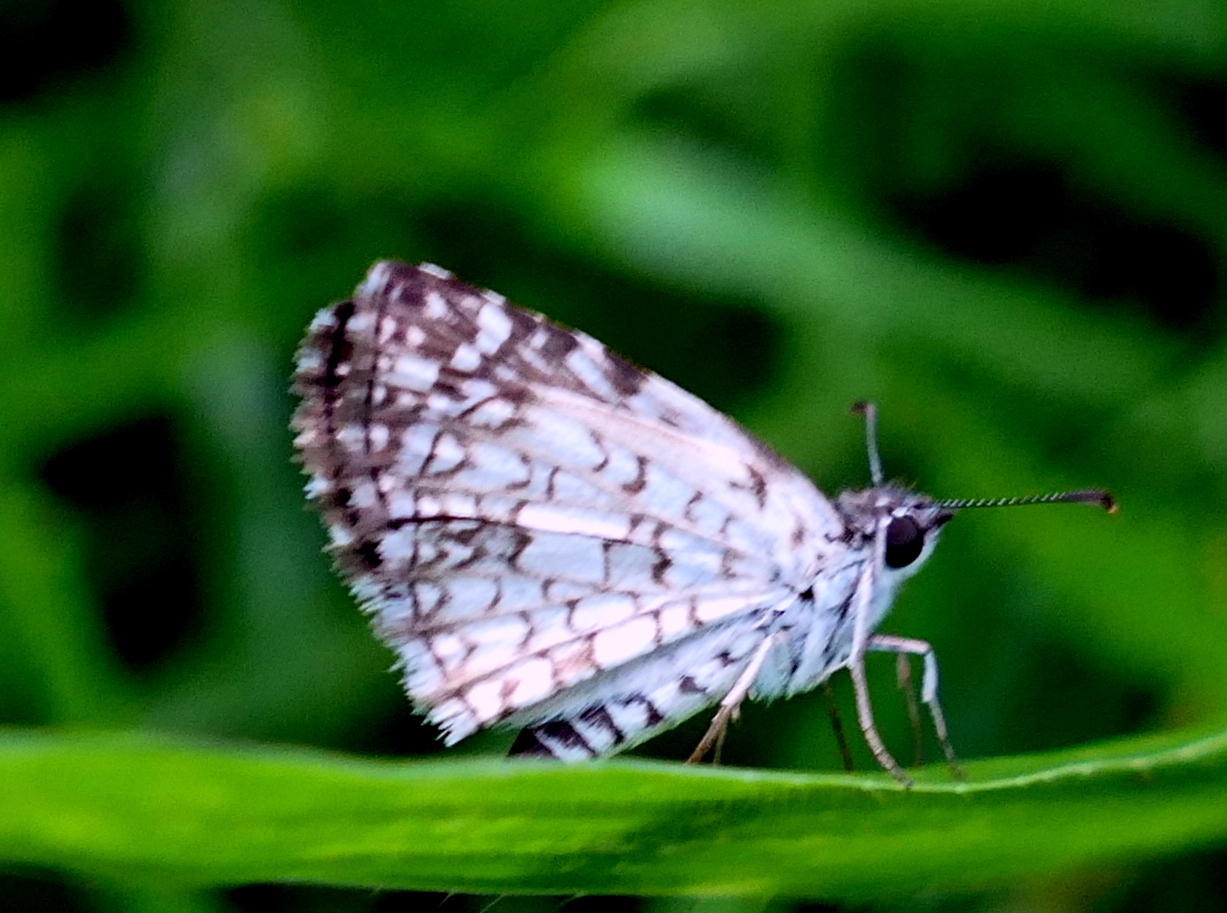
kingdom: Animalia
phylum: Arthropoda
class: Insecta
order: Lepidoptera
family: Hesperiidae
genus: Pyrgus
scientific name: Pyrgus oileus
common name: Tropical checkered-skipper
